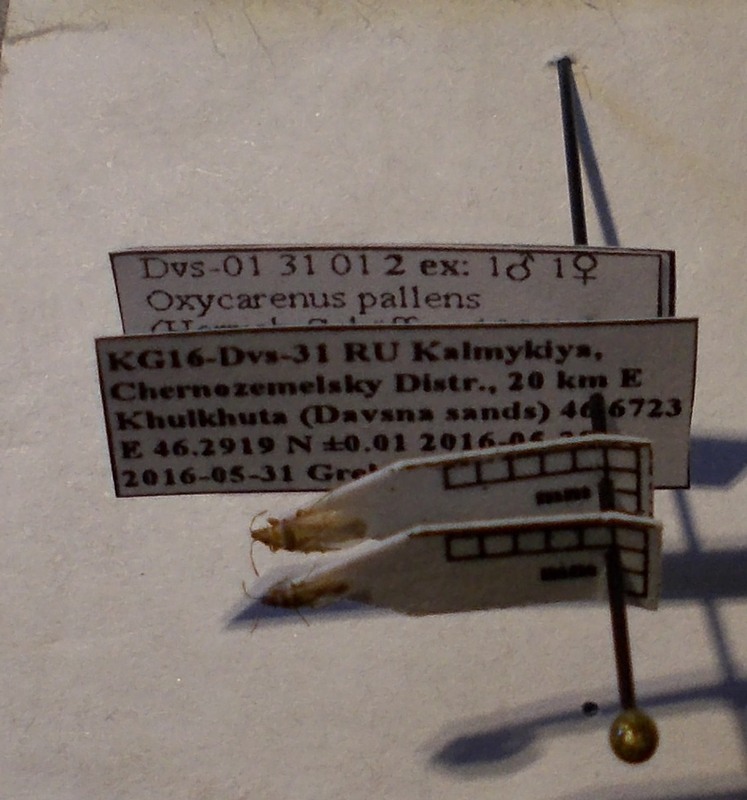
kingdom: Animalia
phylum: Arthropoda
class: Insecta
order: Hemiptera
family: Oxycarenidae
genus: Oxycarenus
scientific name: Oxycarenus pallens
